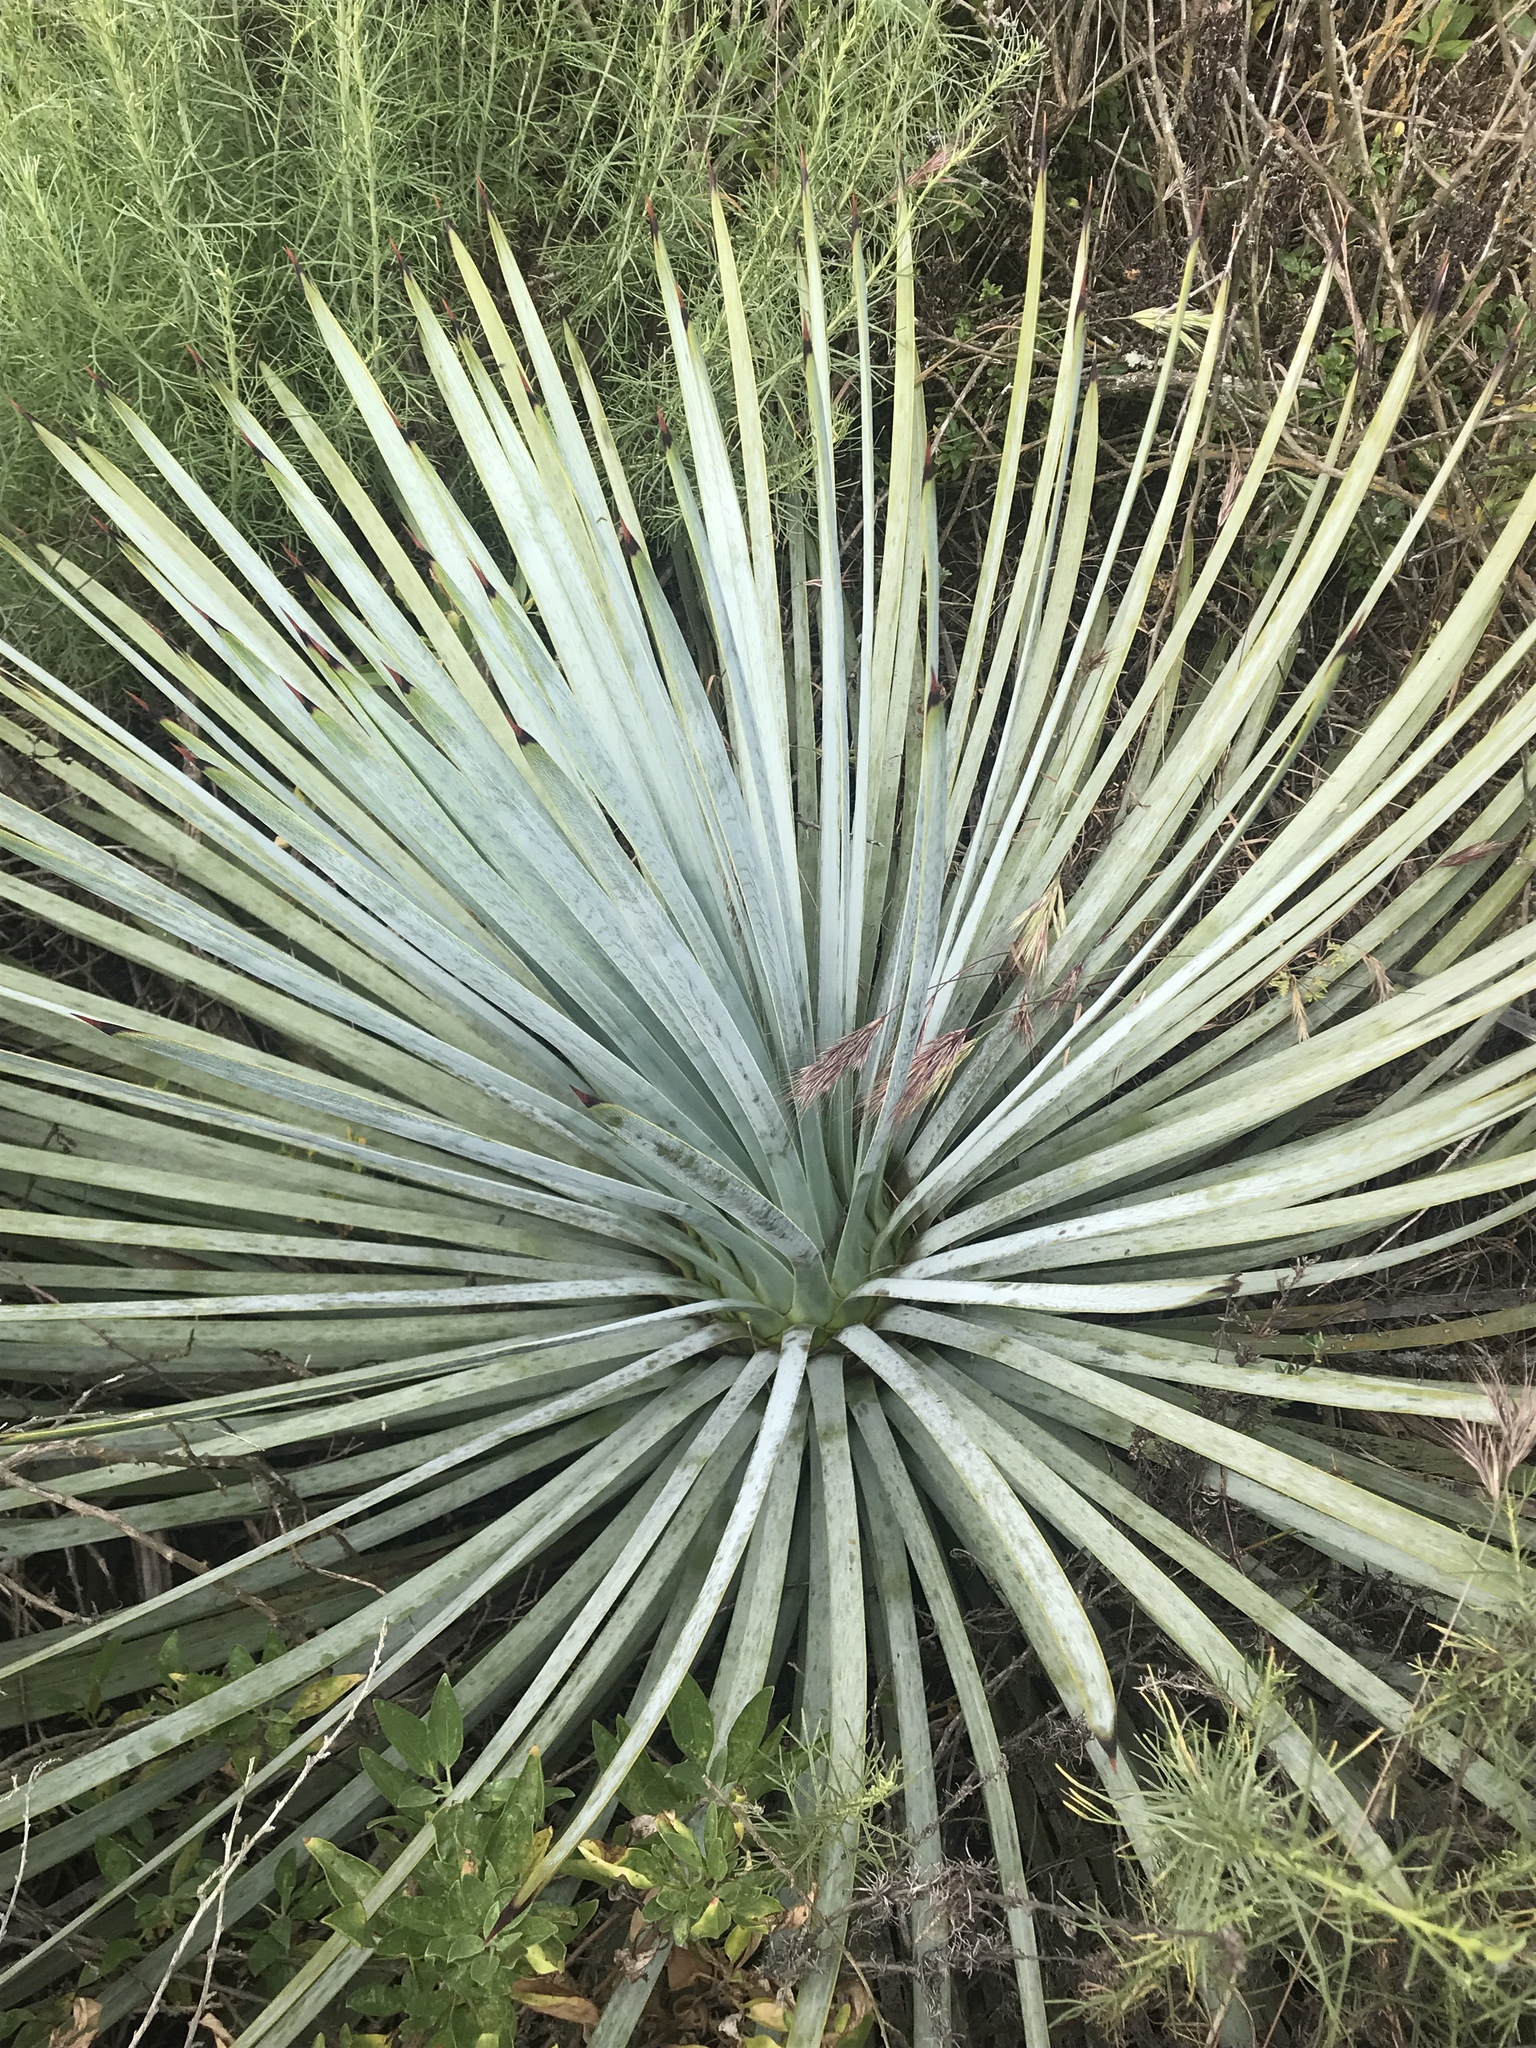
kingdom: Plantae
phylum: Tracheophyta
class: Liliopsida
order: Asparagales
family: Asparagaceae
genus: Hesperoyucca
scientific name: Hesperoyucca whipplei
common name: Our lord's-candle
